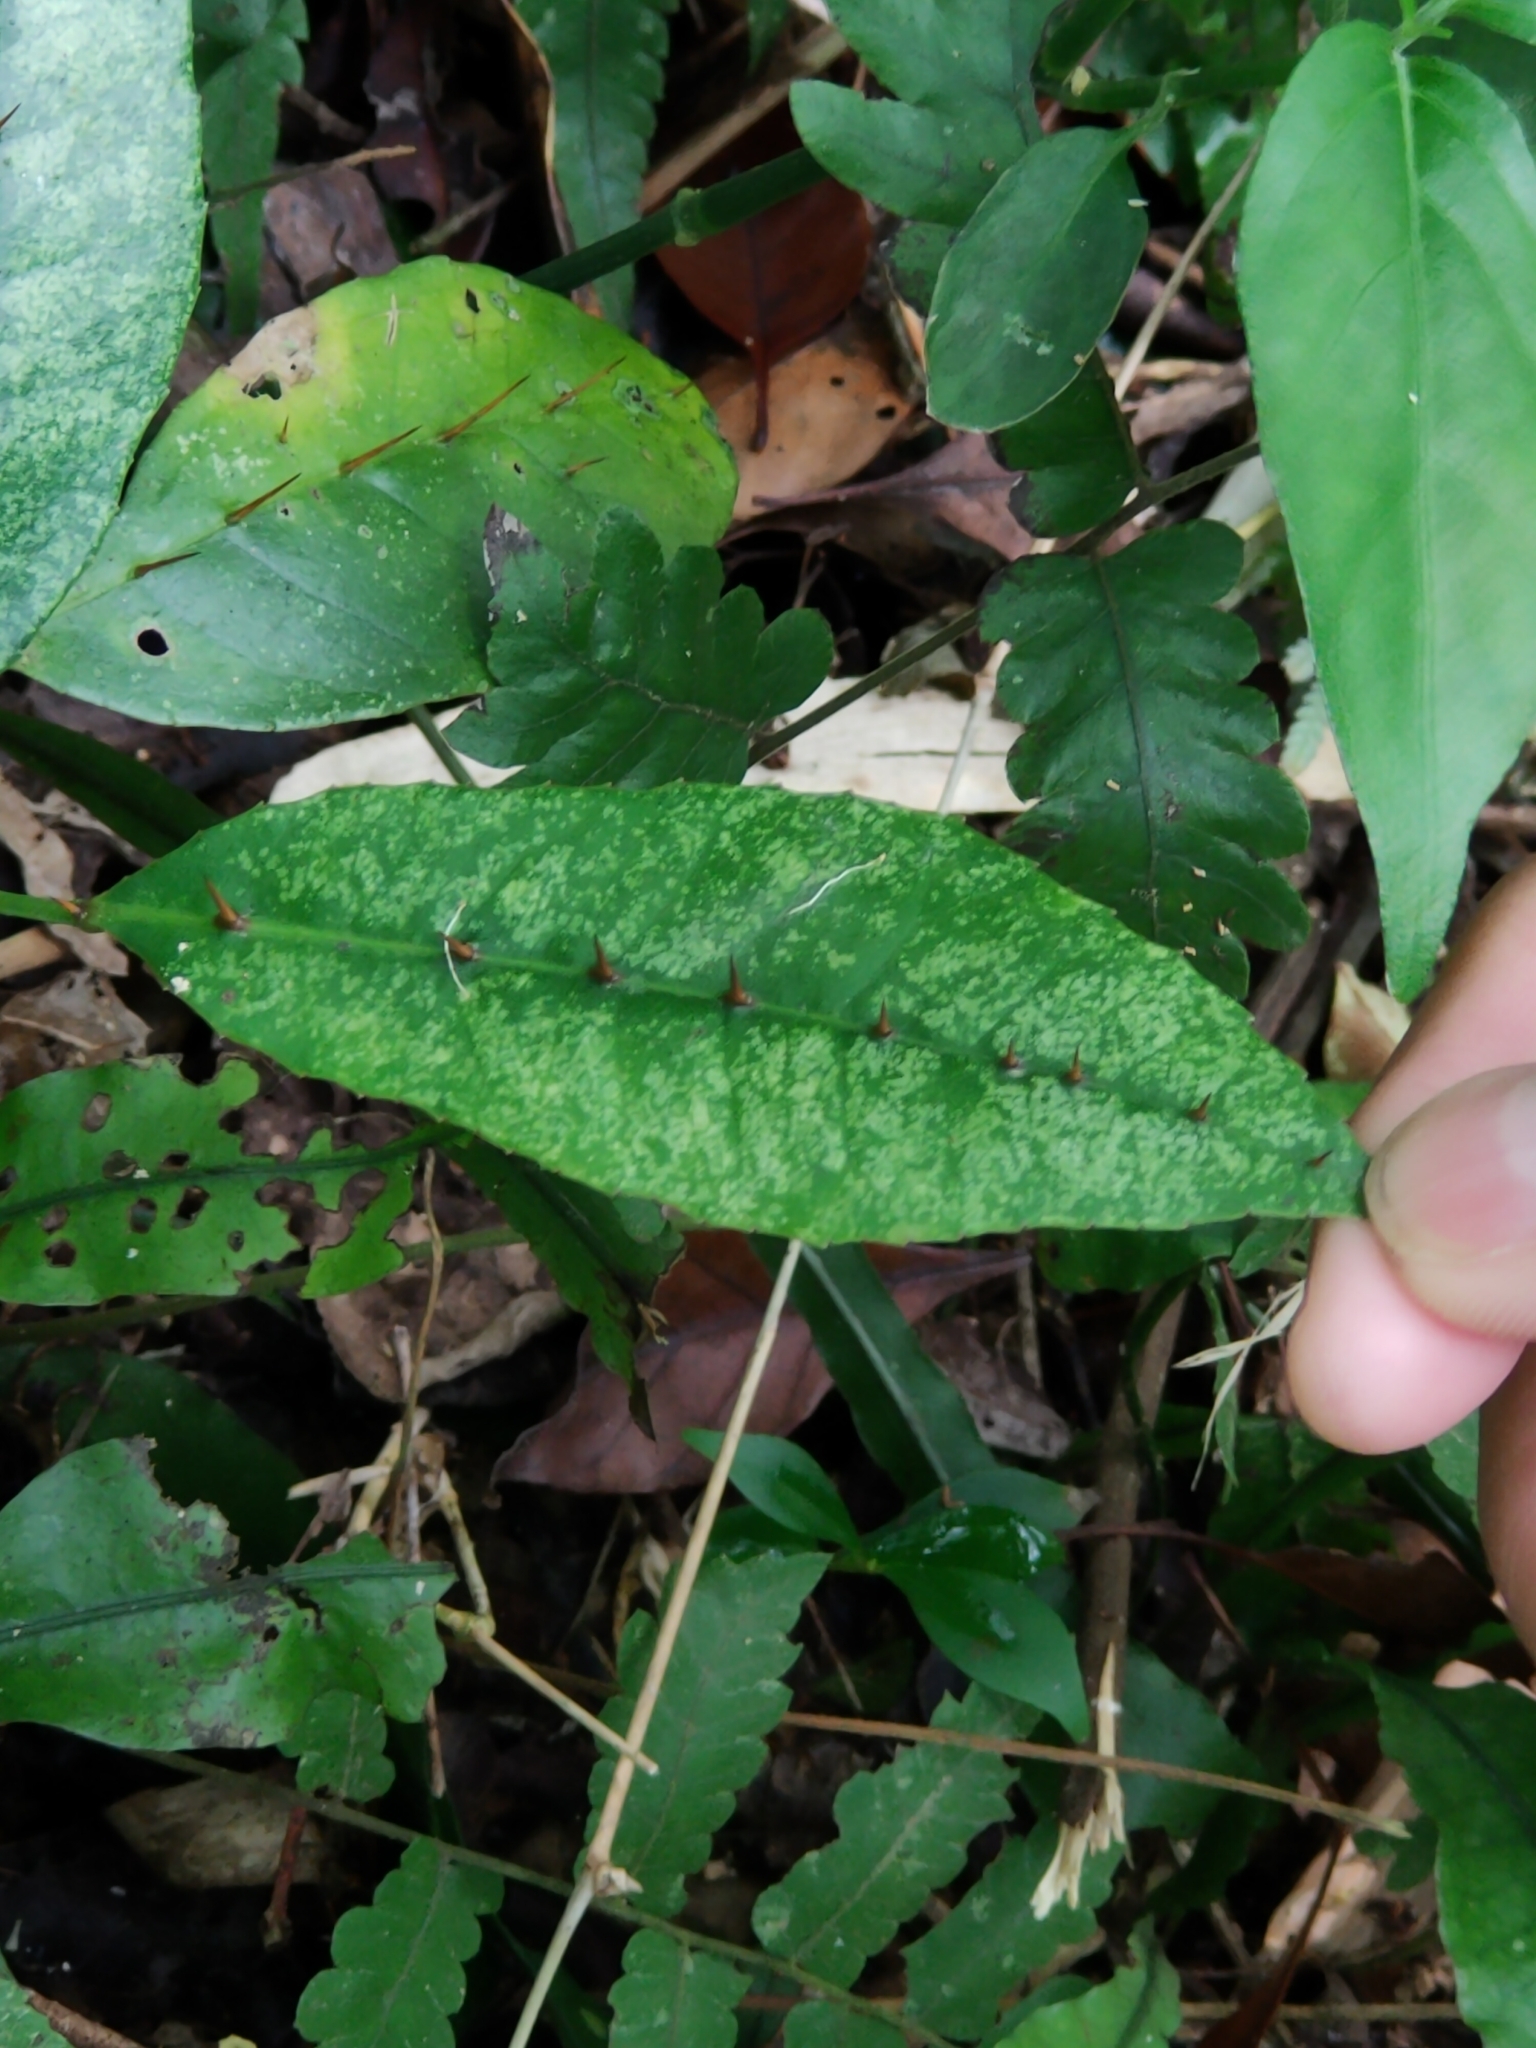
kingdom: Plantae
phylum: Tracheophyta
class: Magnoliopsida
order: Sapindales
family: Rutaceae
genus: Zanthoxylum
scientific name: Zanthoxylum nitidum
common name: Shiny-leaf prickly-ash
